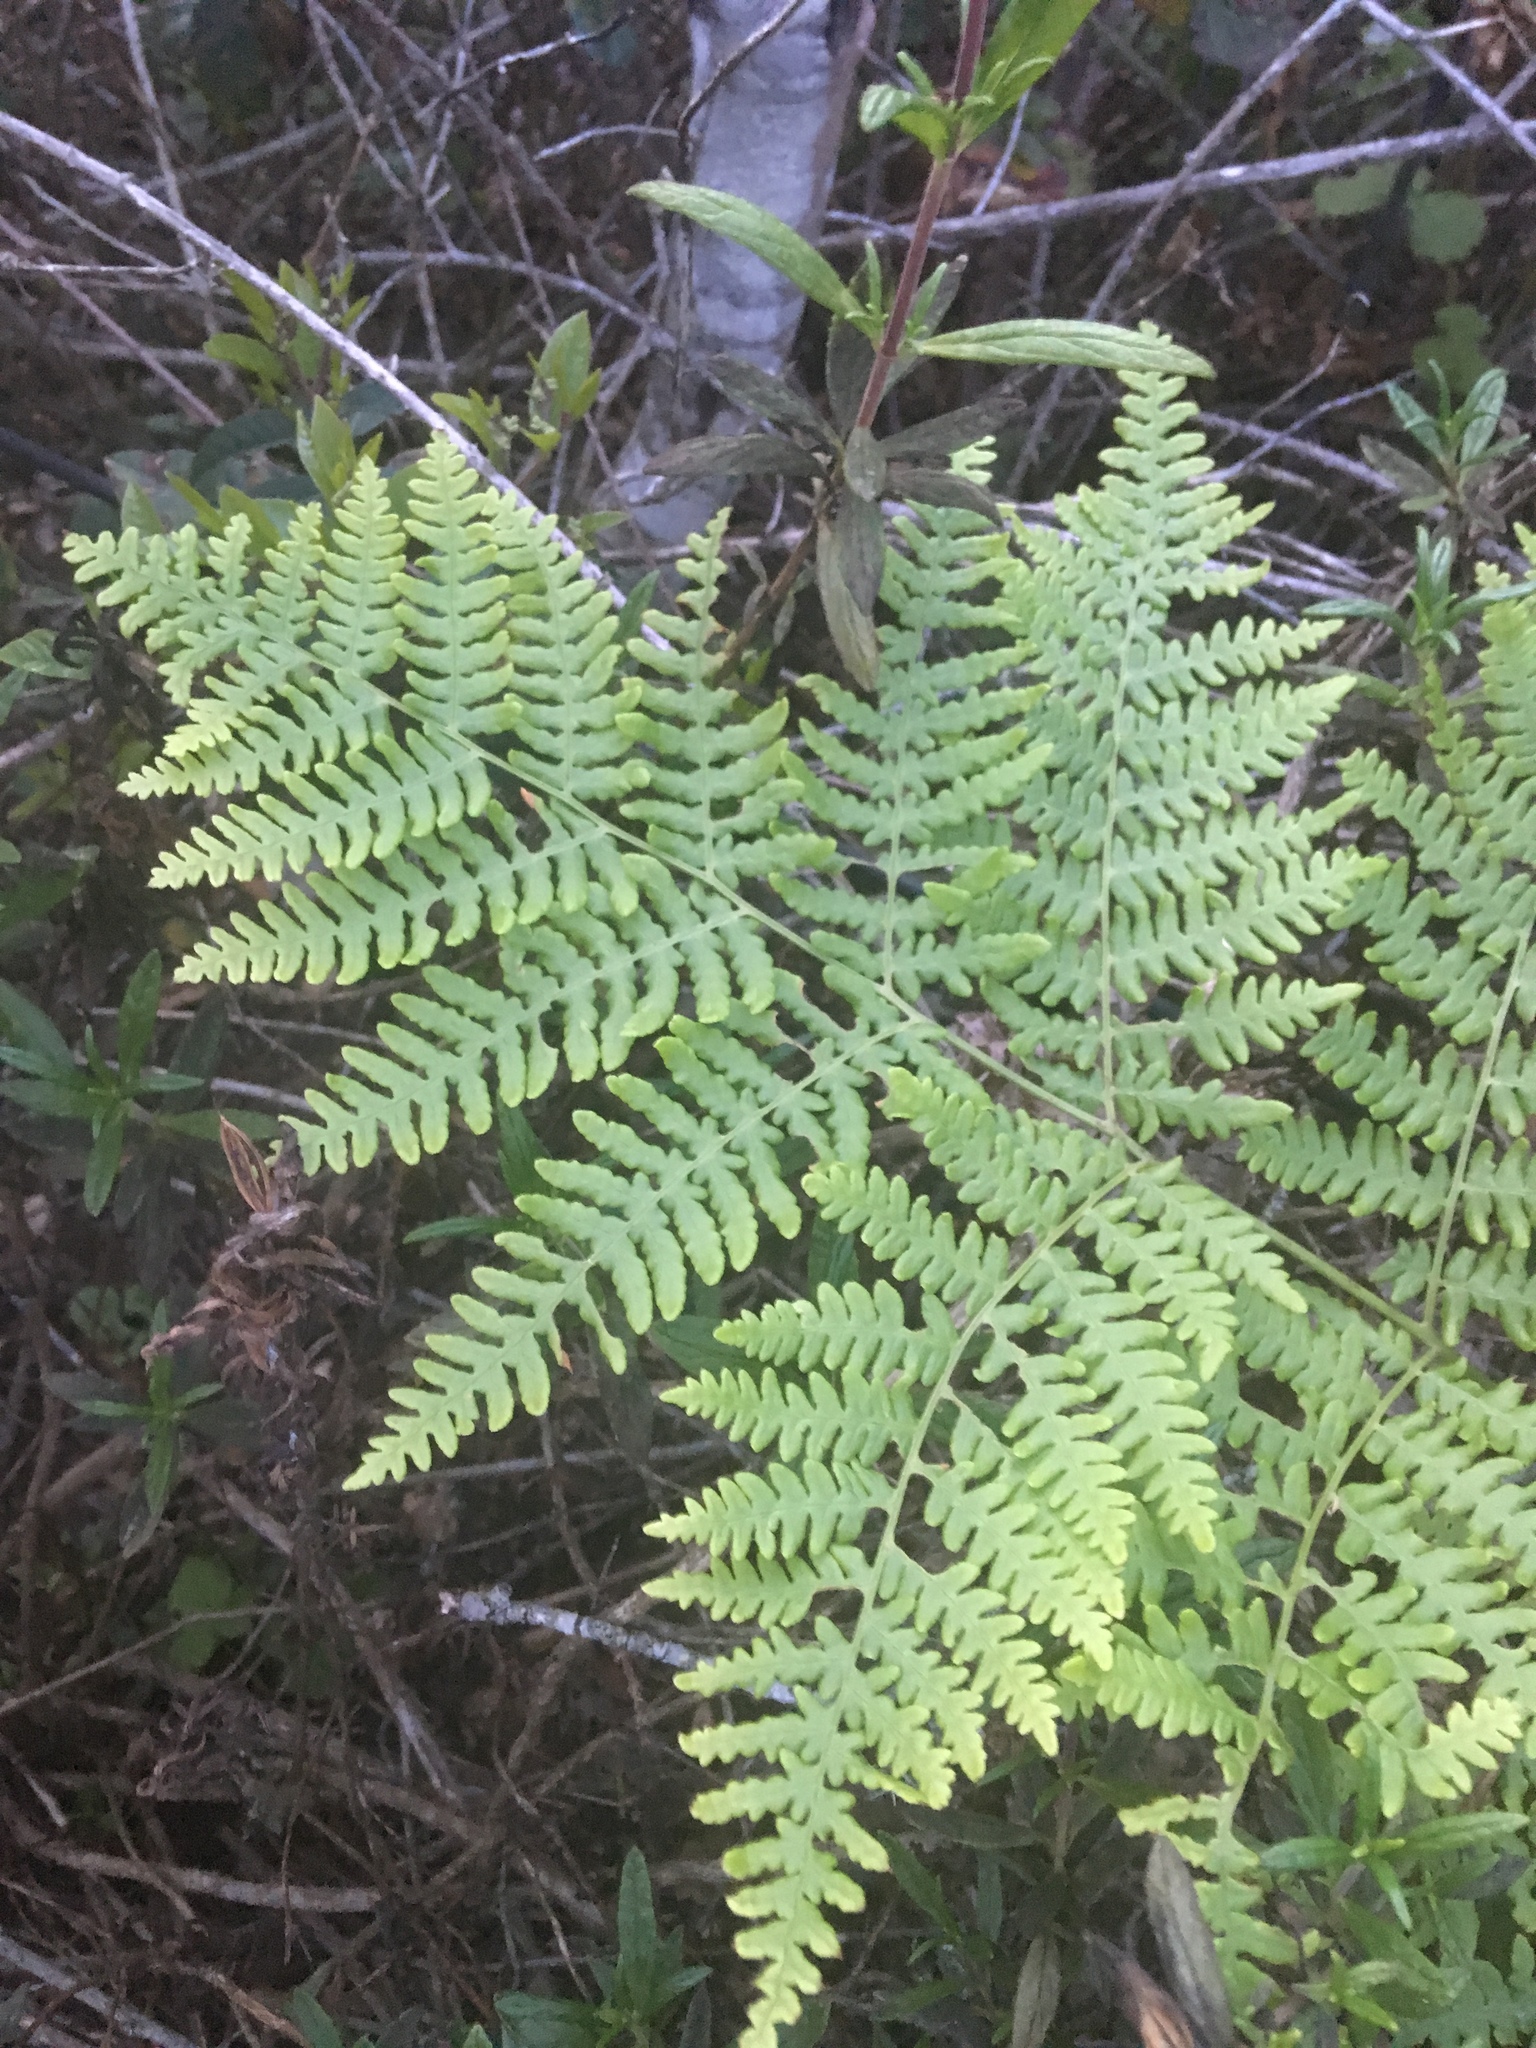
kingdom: Plantae
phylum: Tracheophyta
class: Polypodiopsida
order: Polypodiales
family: Dennstaedtiaceae
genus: Pteridium
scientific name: Pteridium aquilinum
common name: Bracken
